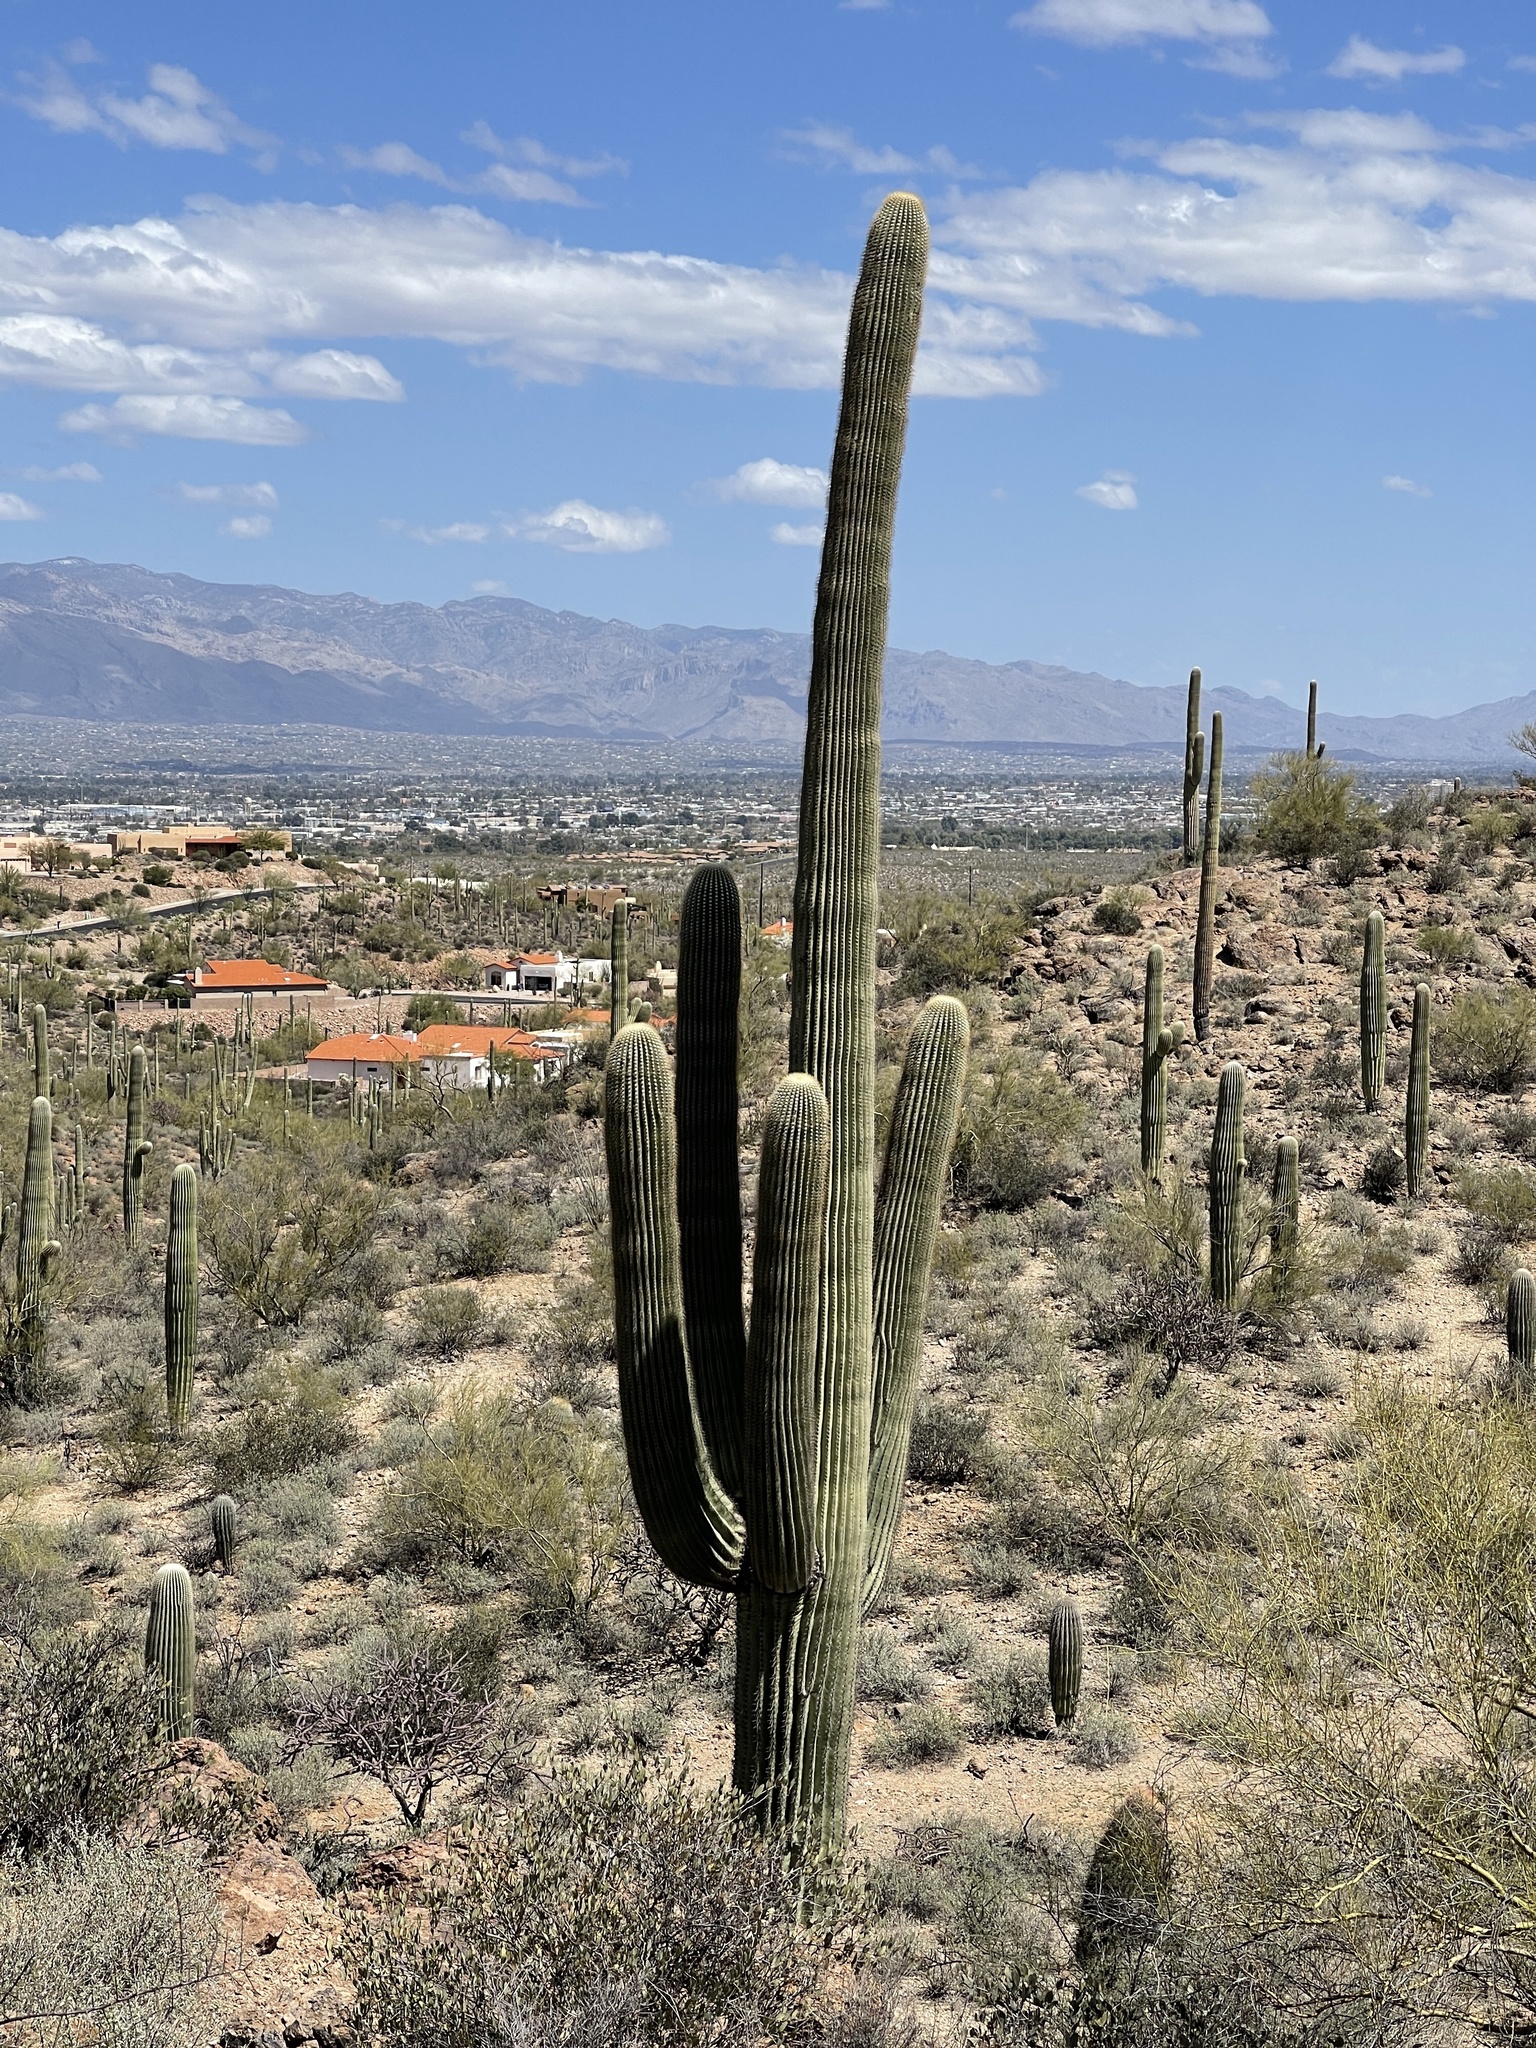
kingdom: Plantae
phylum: Tracheophyta
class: Magnoliopsida
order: Caryophyllales
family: Cactaceae
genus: Carnegiea
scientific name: Carnegiea gigantea
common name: Saguaro
